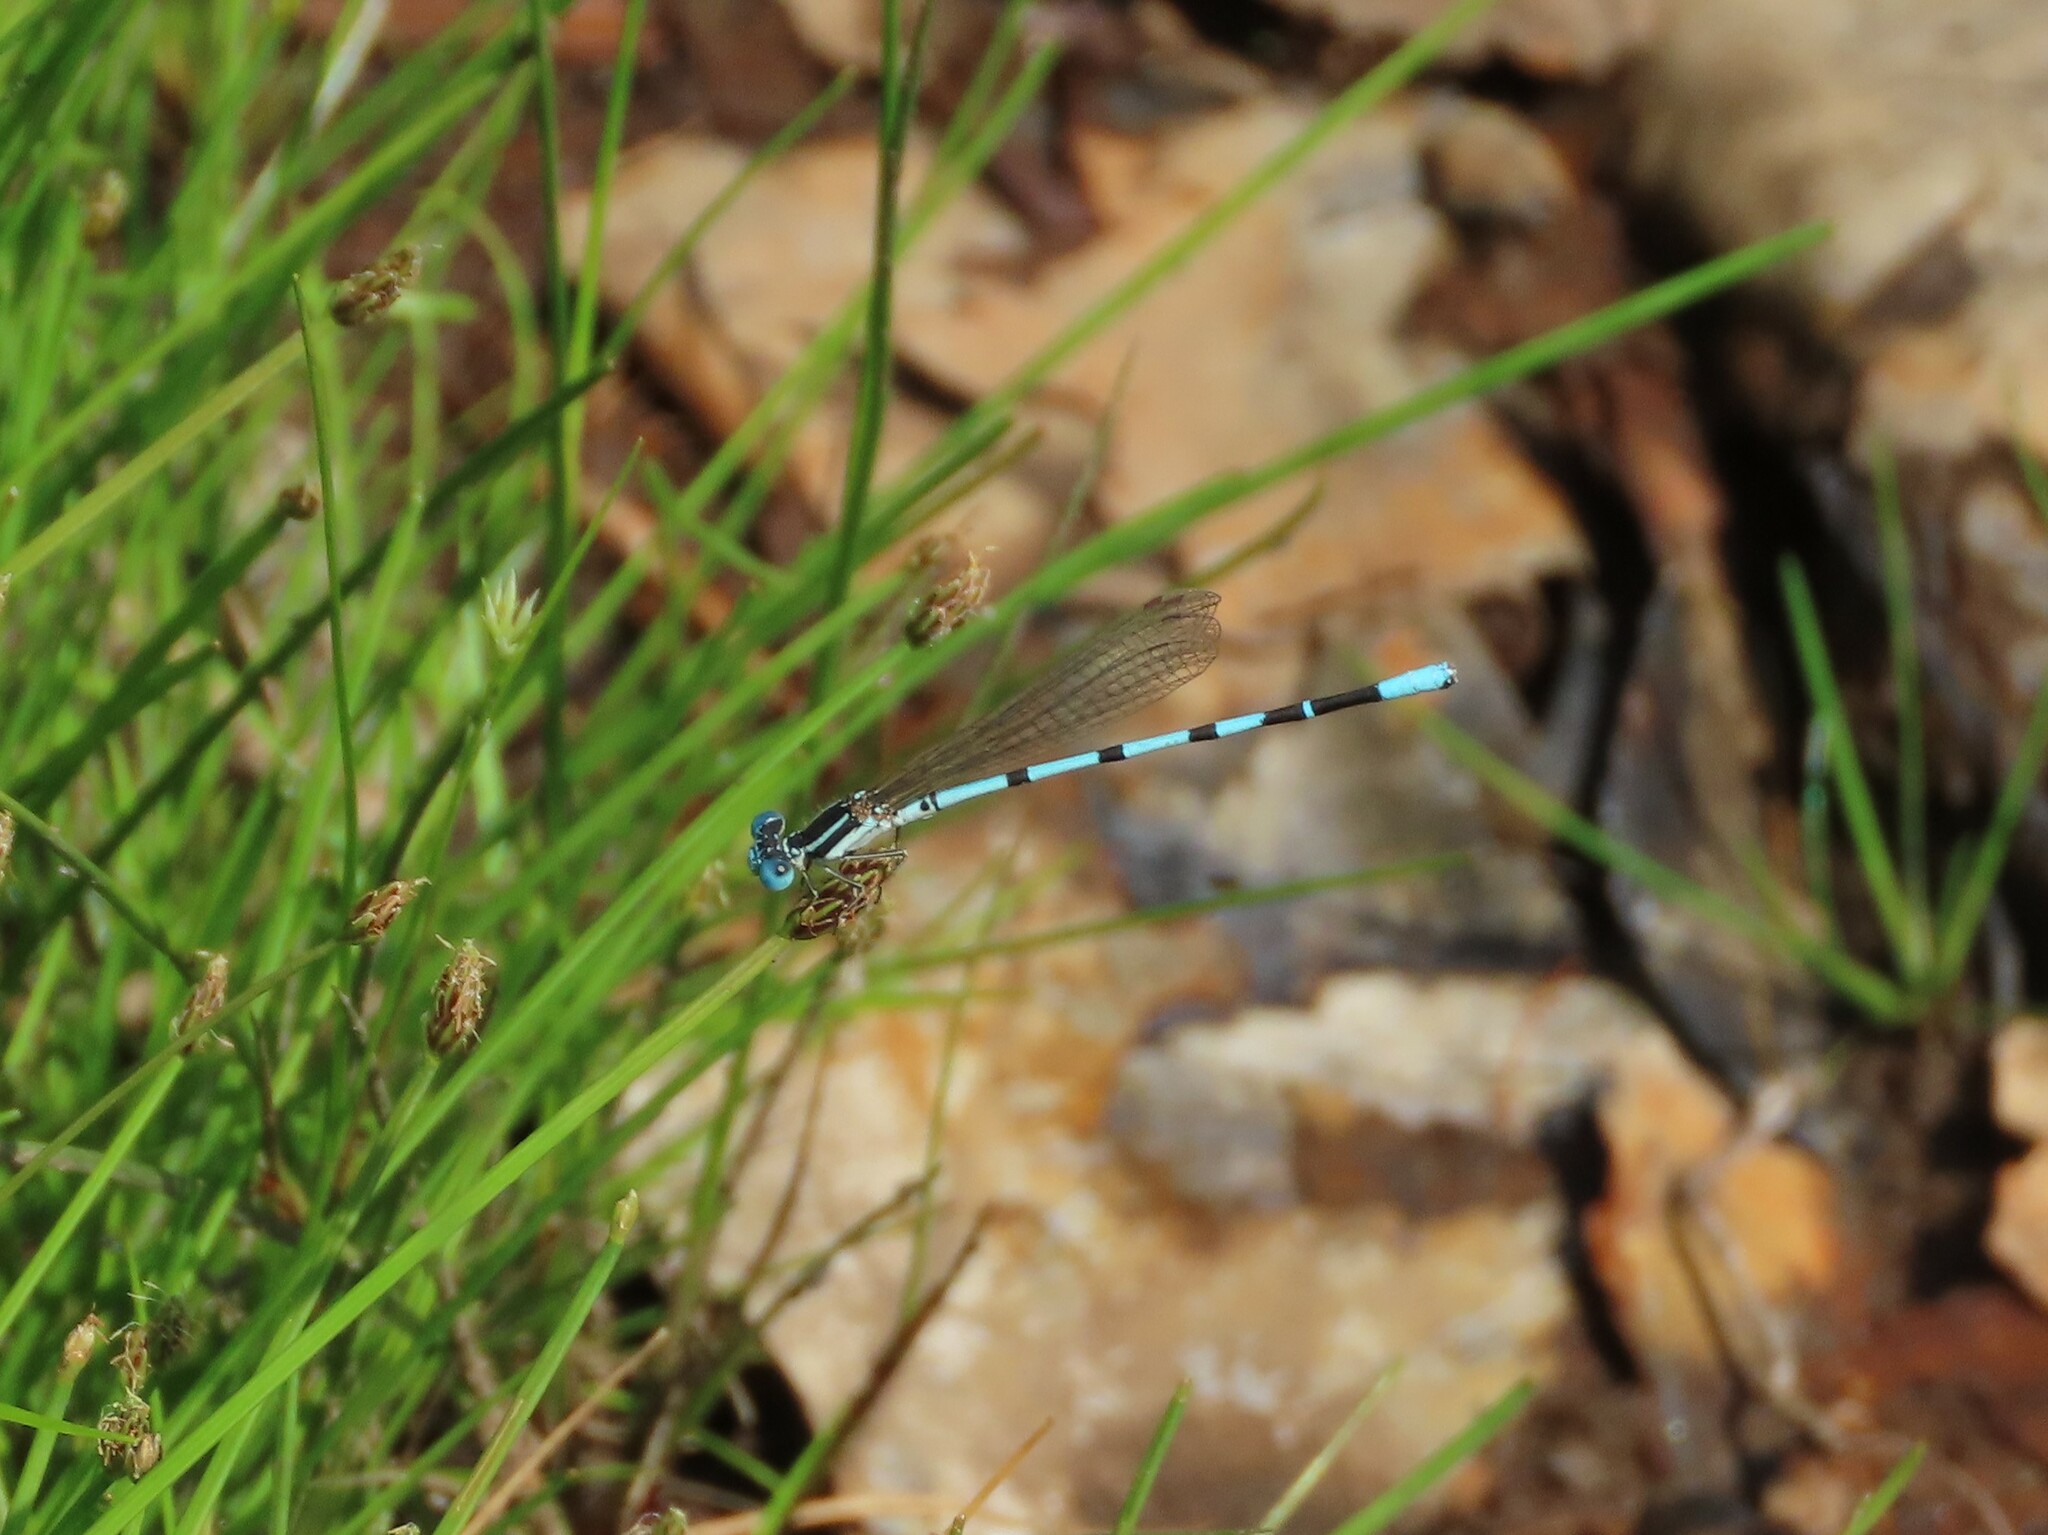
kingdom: Animalia
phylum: Arthropoda
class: Insecta
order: Odonata
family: Coenagrionidae
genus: Argia
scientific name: Argia bipunctulata
